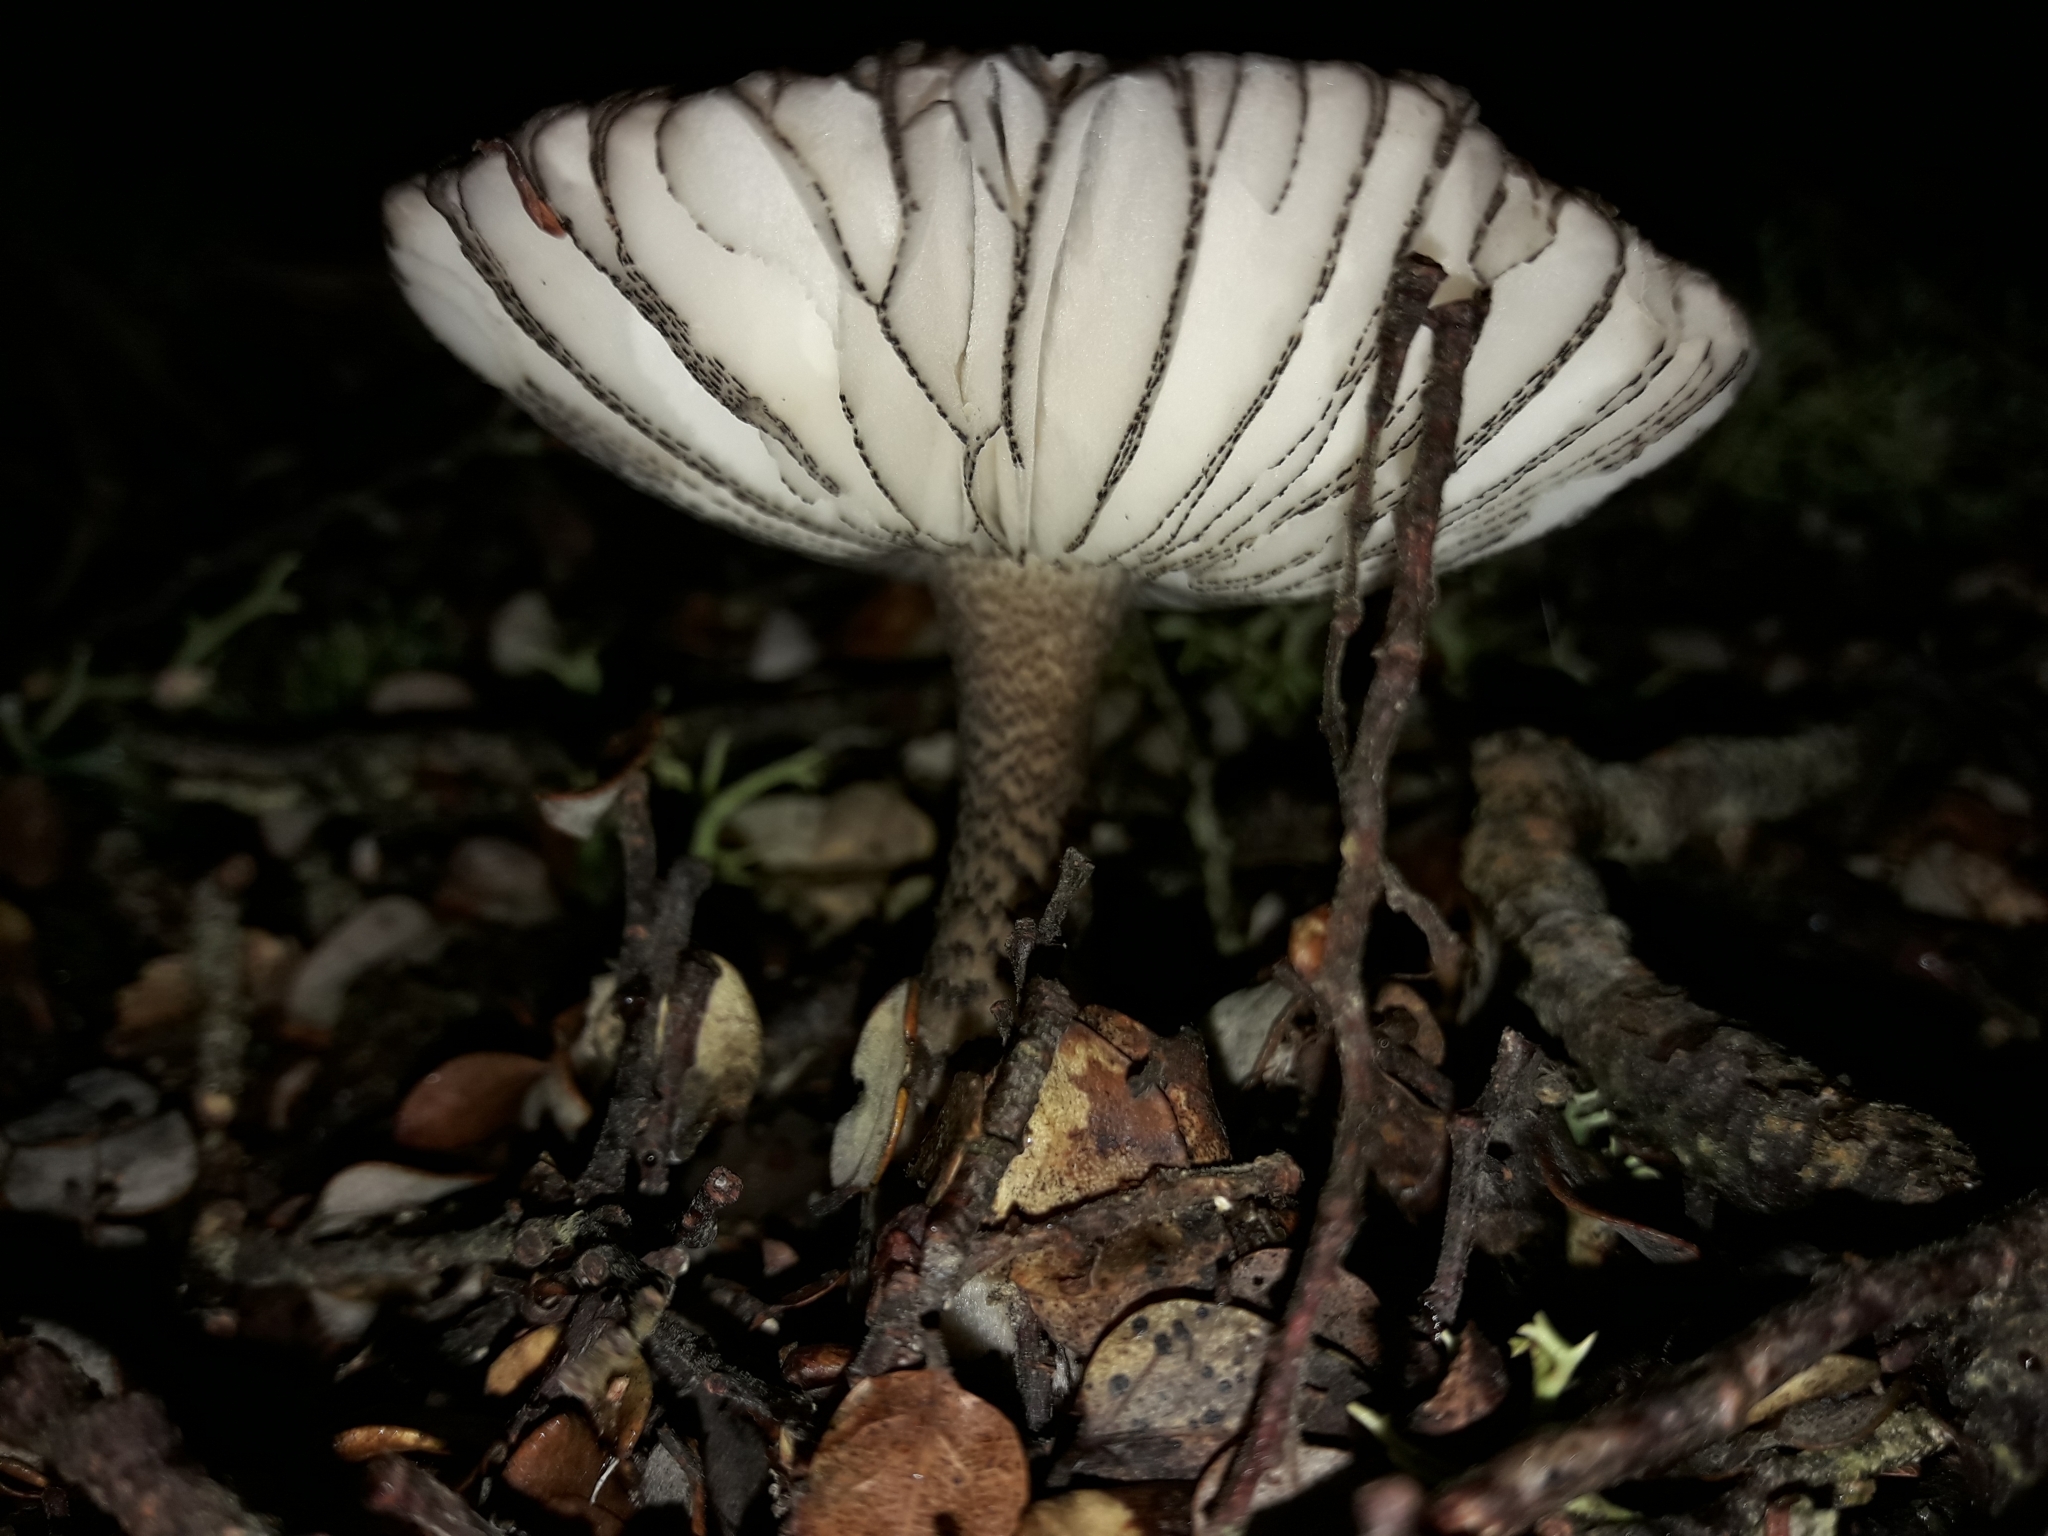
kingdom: Fungi
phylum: Basidiomycota
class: Agaricomycetes
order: Agaricales
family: Amanitaceae
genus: Amanita
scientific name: Amanita pekeoides
